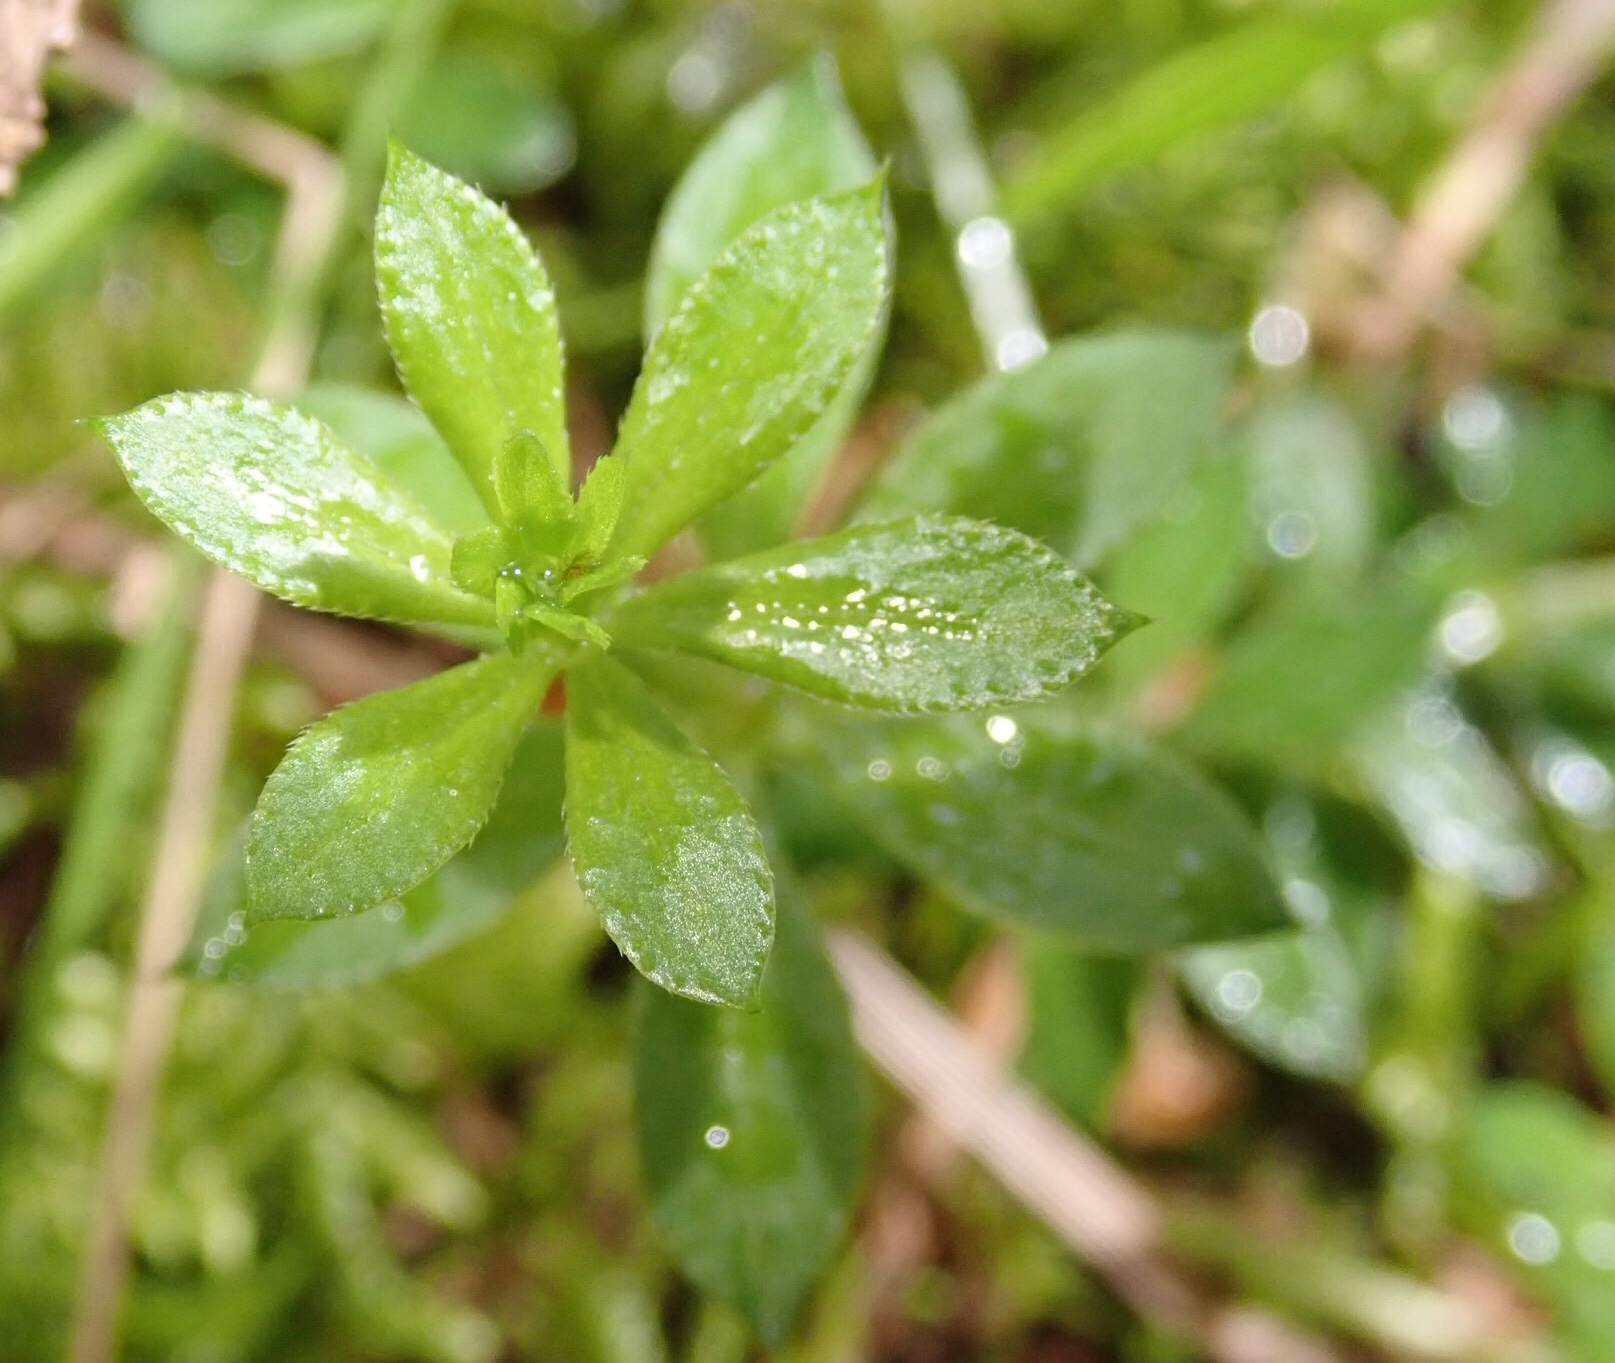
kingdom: Plantae
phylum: Tracheophyta
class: Magnoliopsida
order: Gentianales
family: Rubiaceae
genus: Galium
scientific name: Galium triflorum
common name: Fragrant bedstraw
